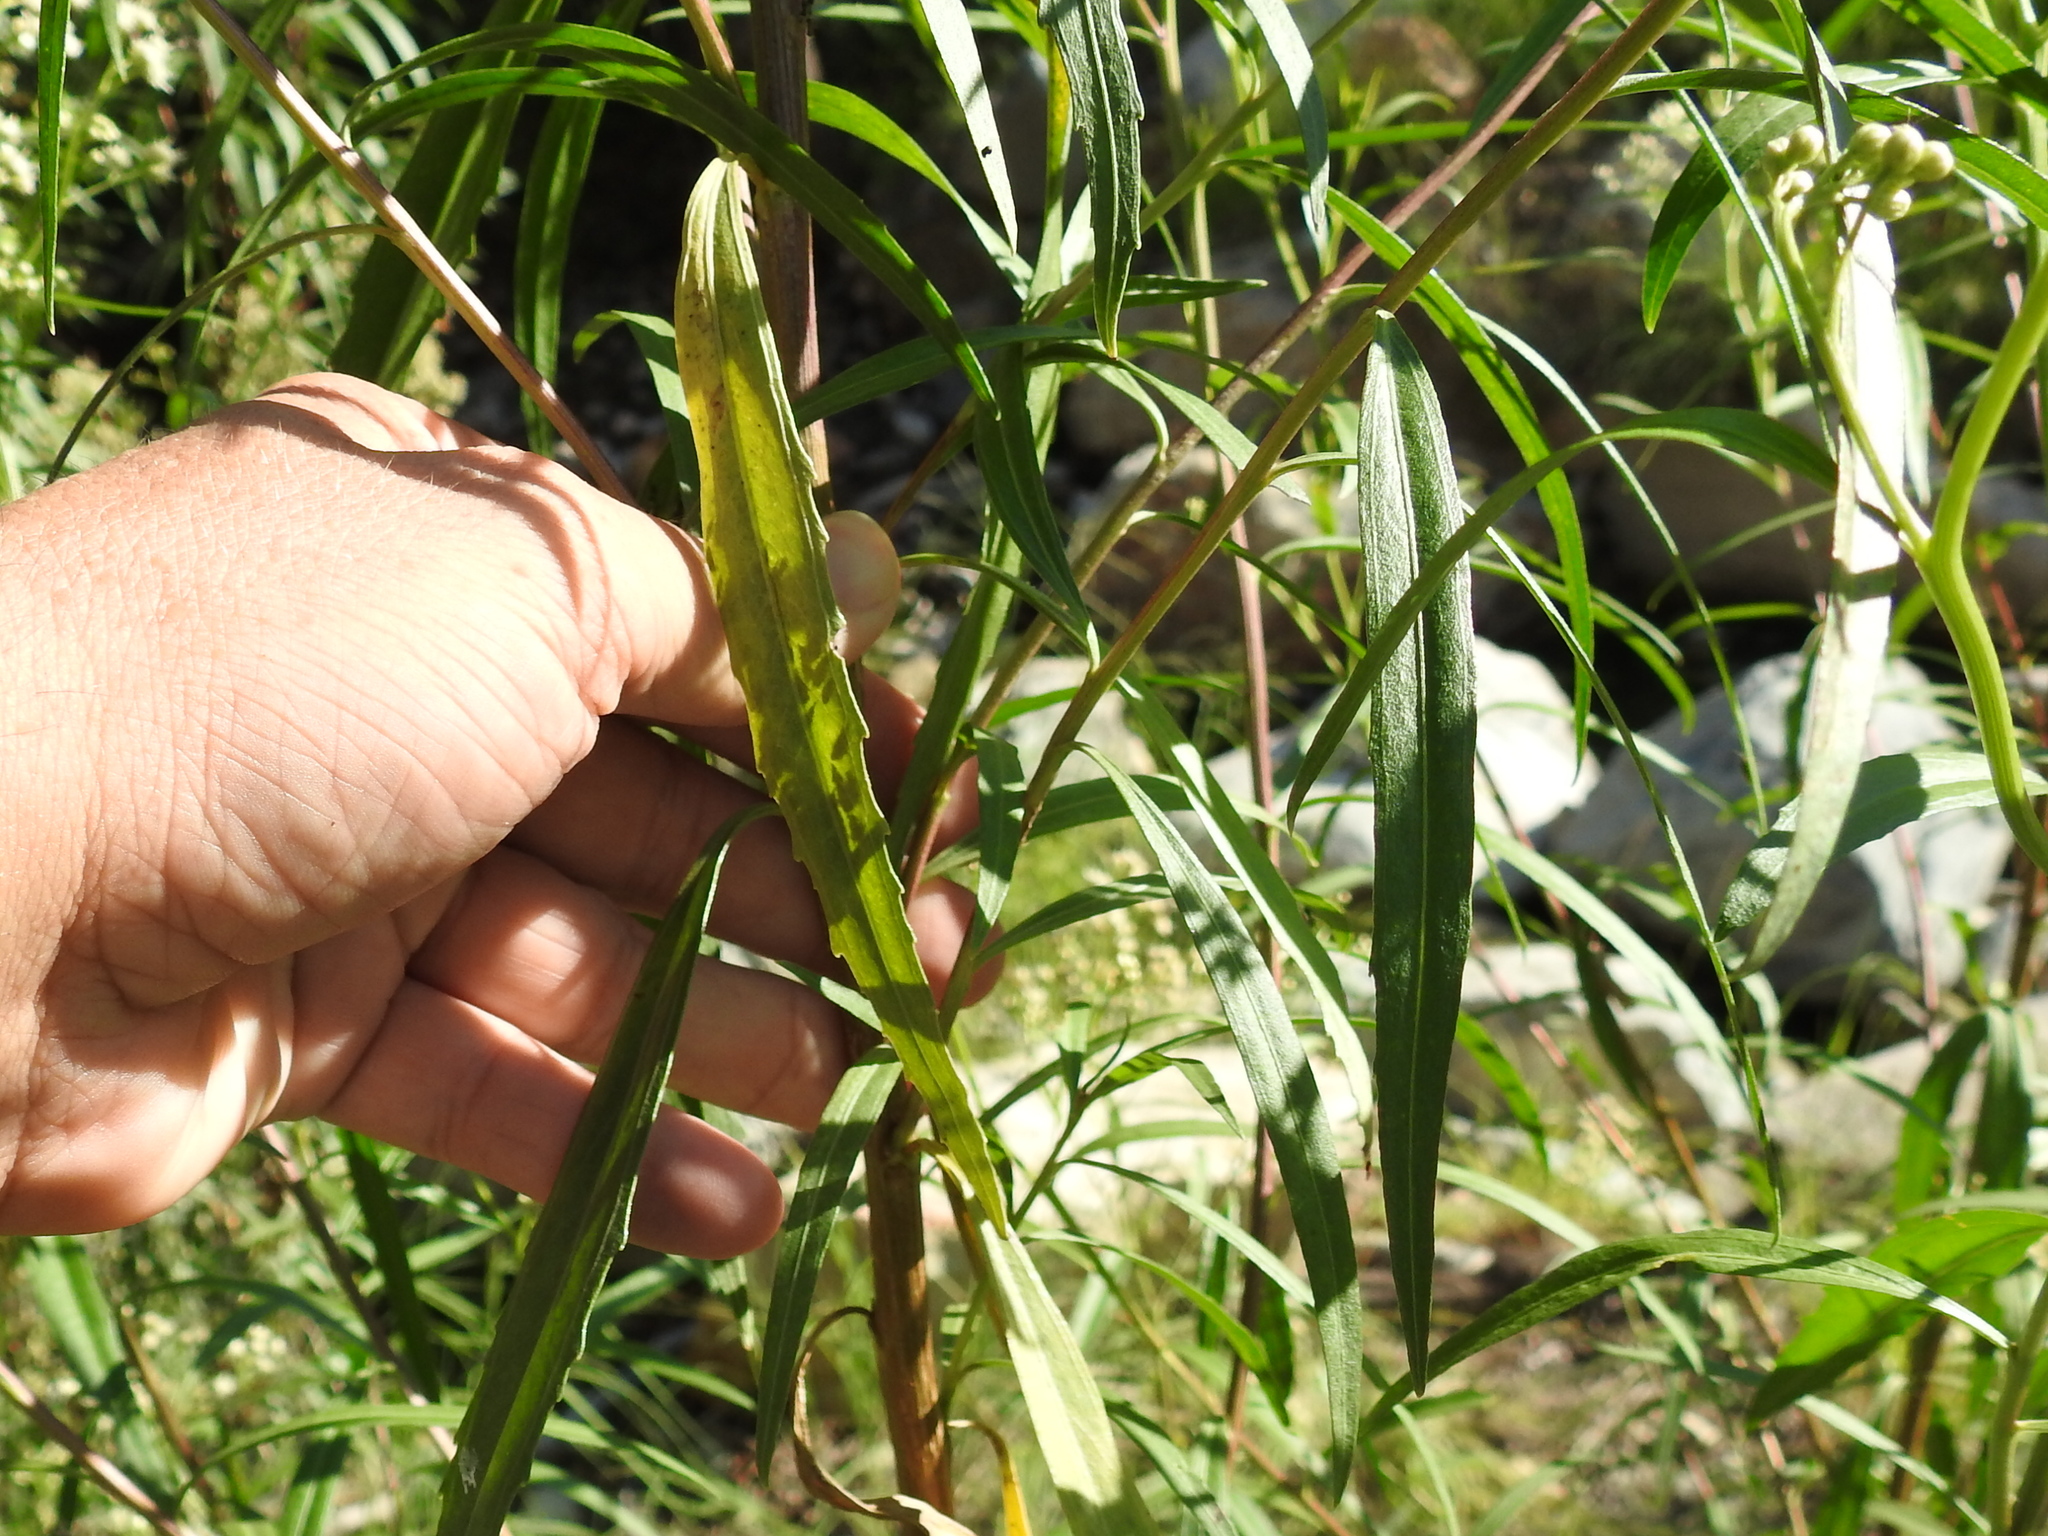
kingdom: Plantae
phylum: Tracheophyta
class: Magnoliopsida
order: Asterales
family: Asteraceae
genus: Baccharis
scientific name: Baccharis salicifolia
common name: Sticky baccharis
